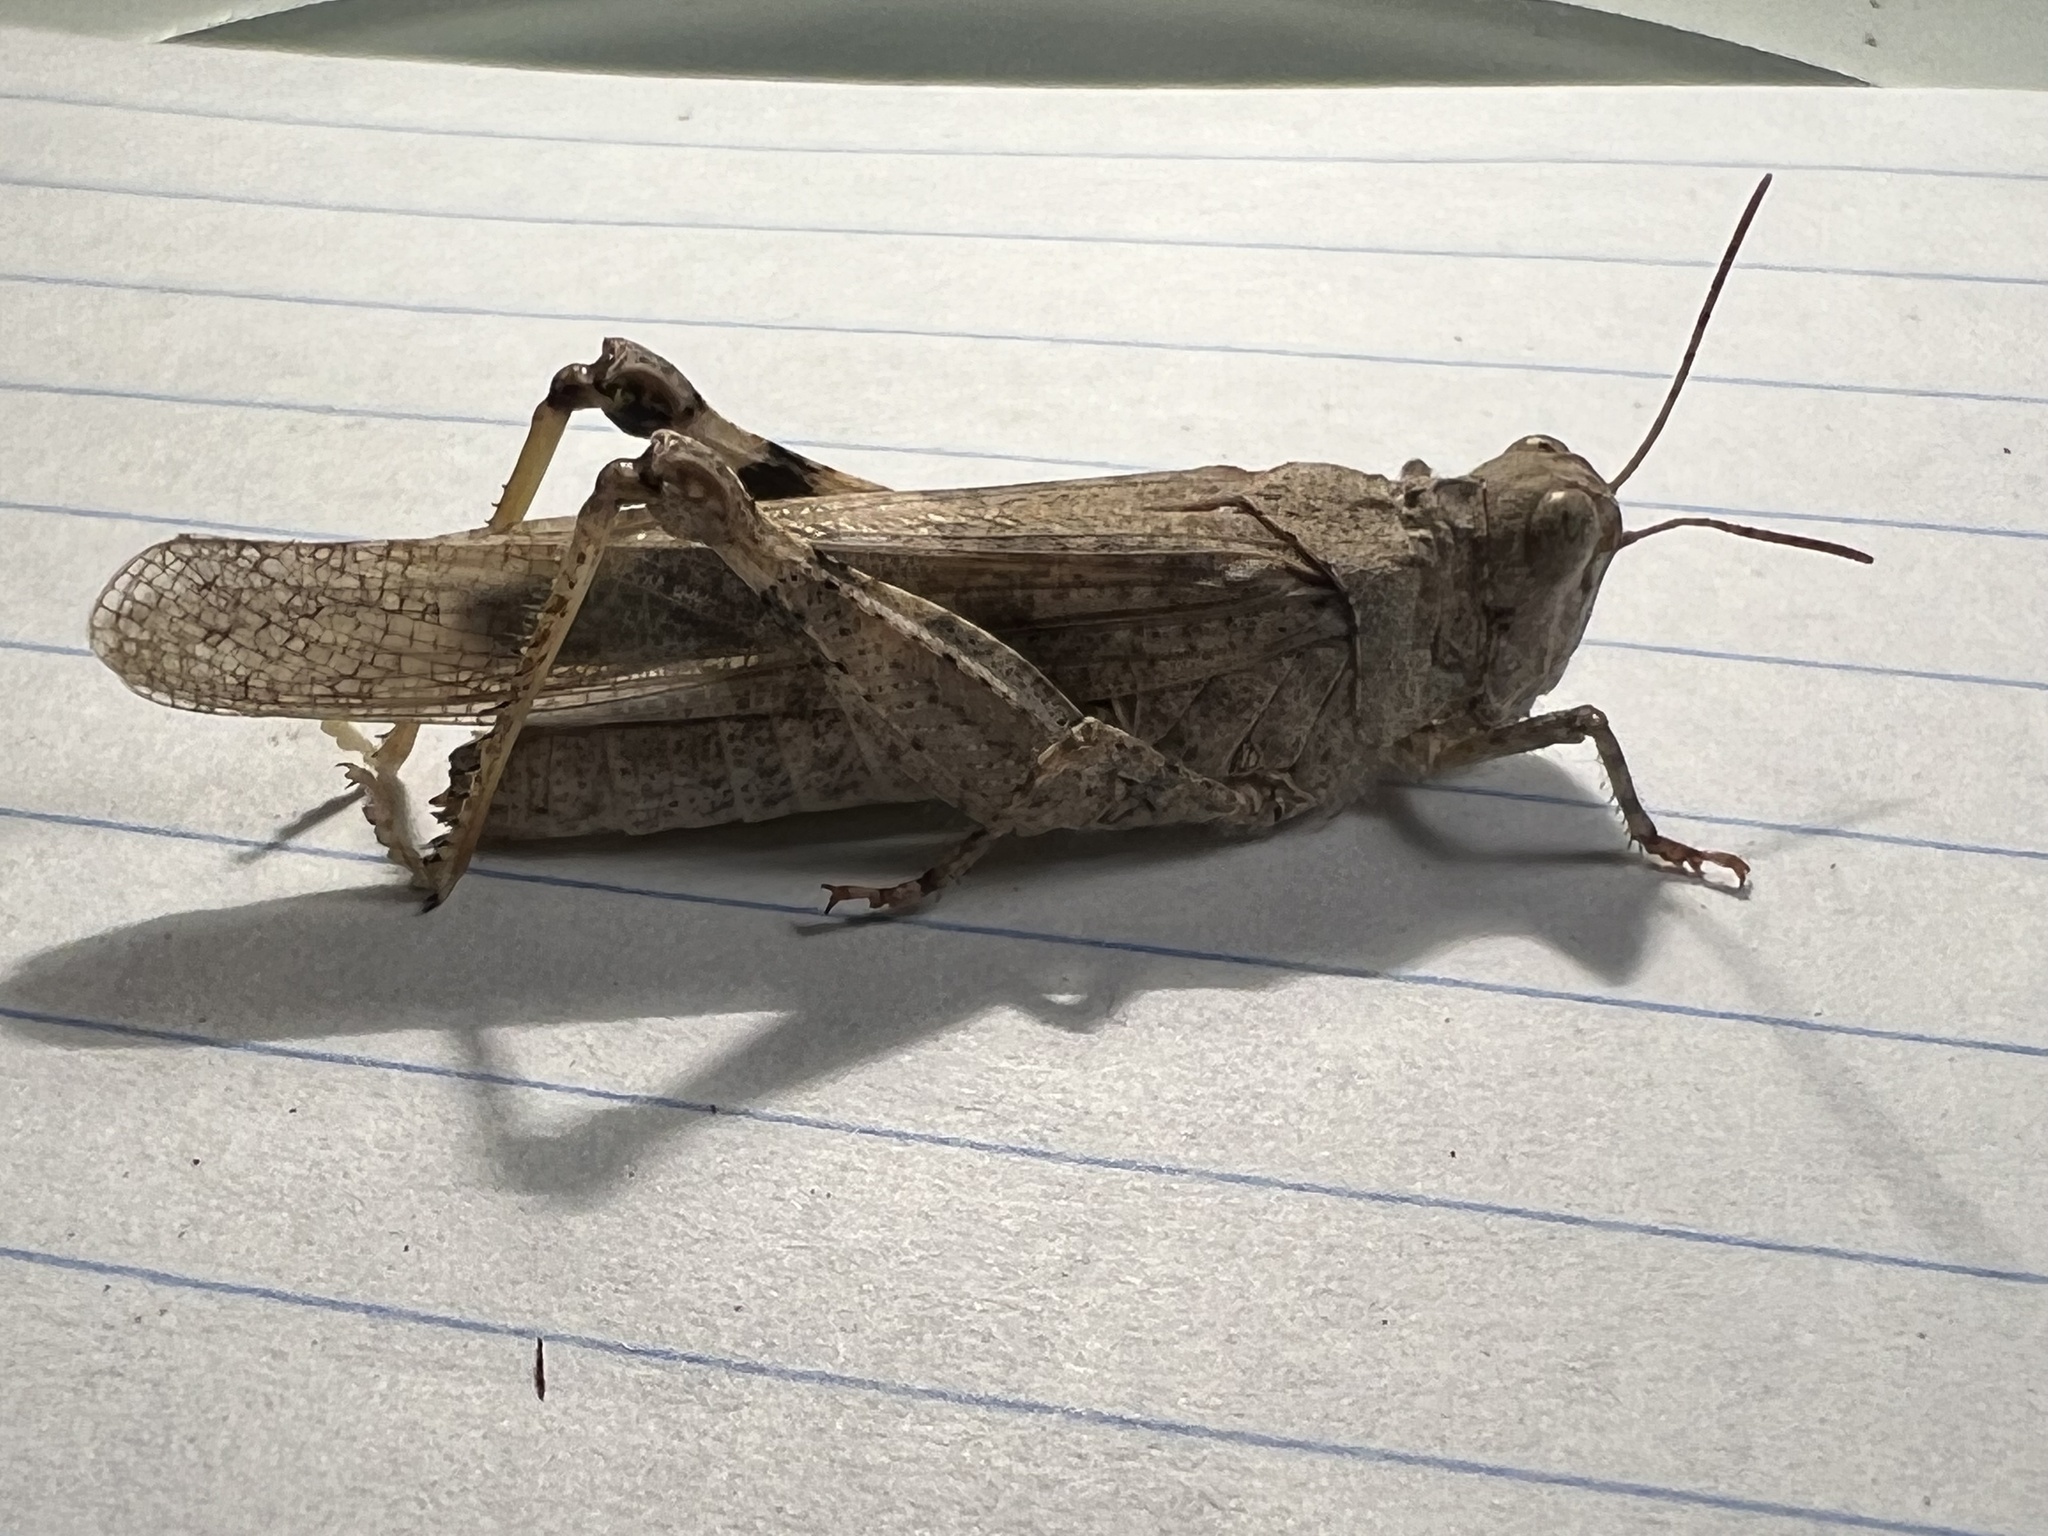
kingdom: Animalia
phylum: Arthropoda
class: Insecta
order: Orthoptera
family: Acrididae
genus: Trimerotropis
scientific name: Trimerotropis pallidipennis
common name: Pallid-winged grasshopper
